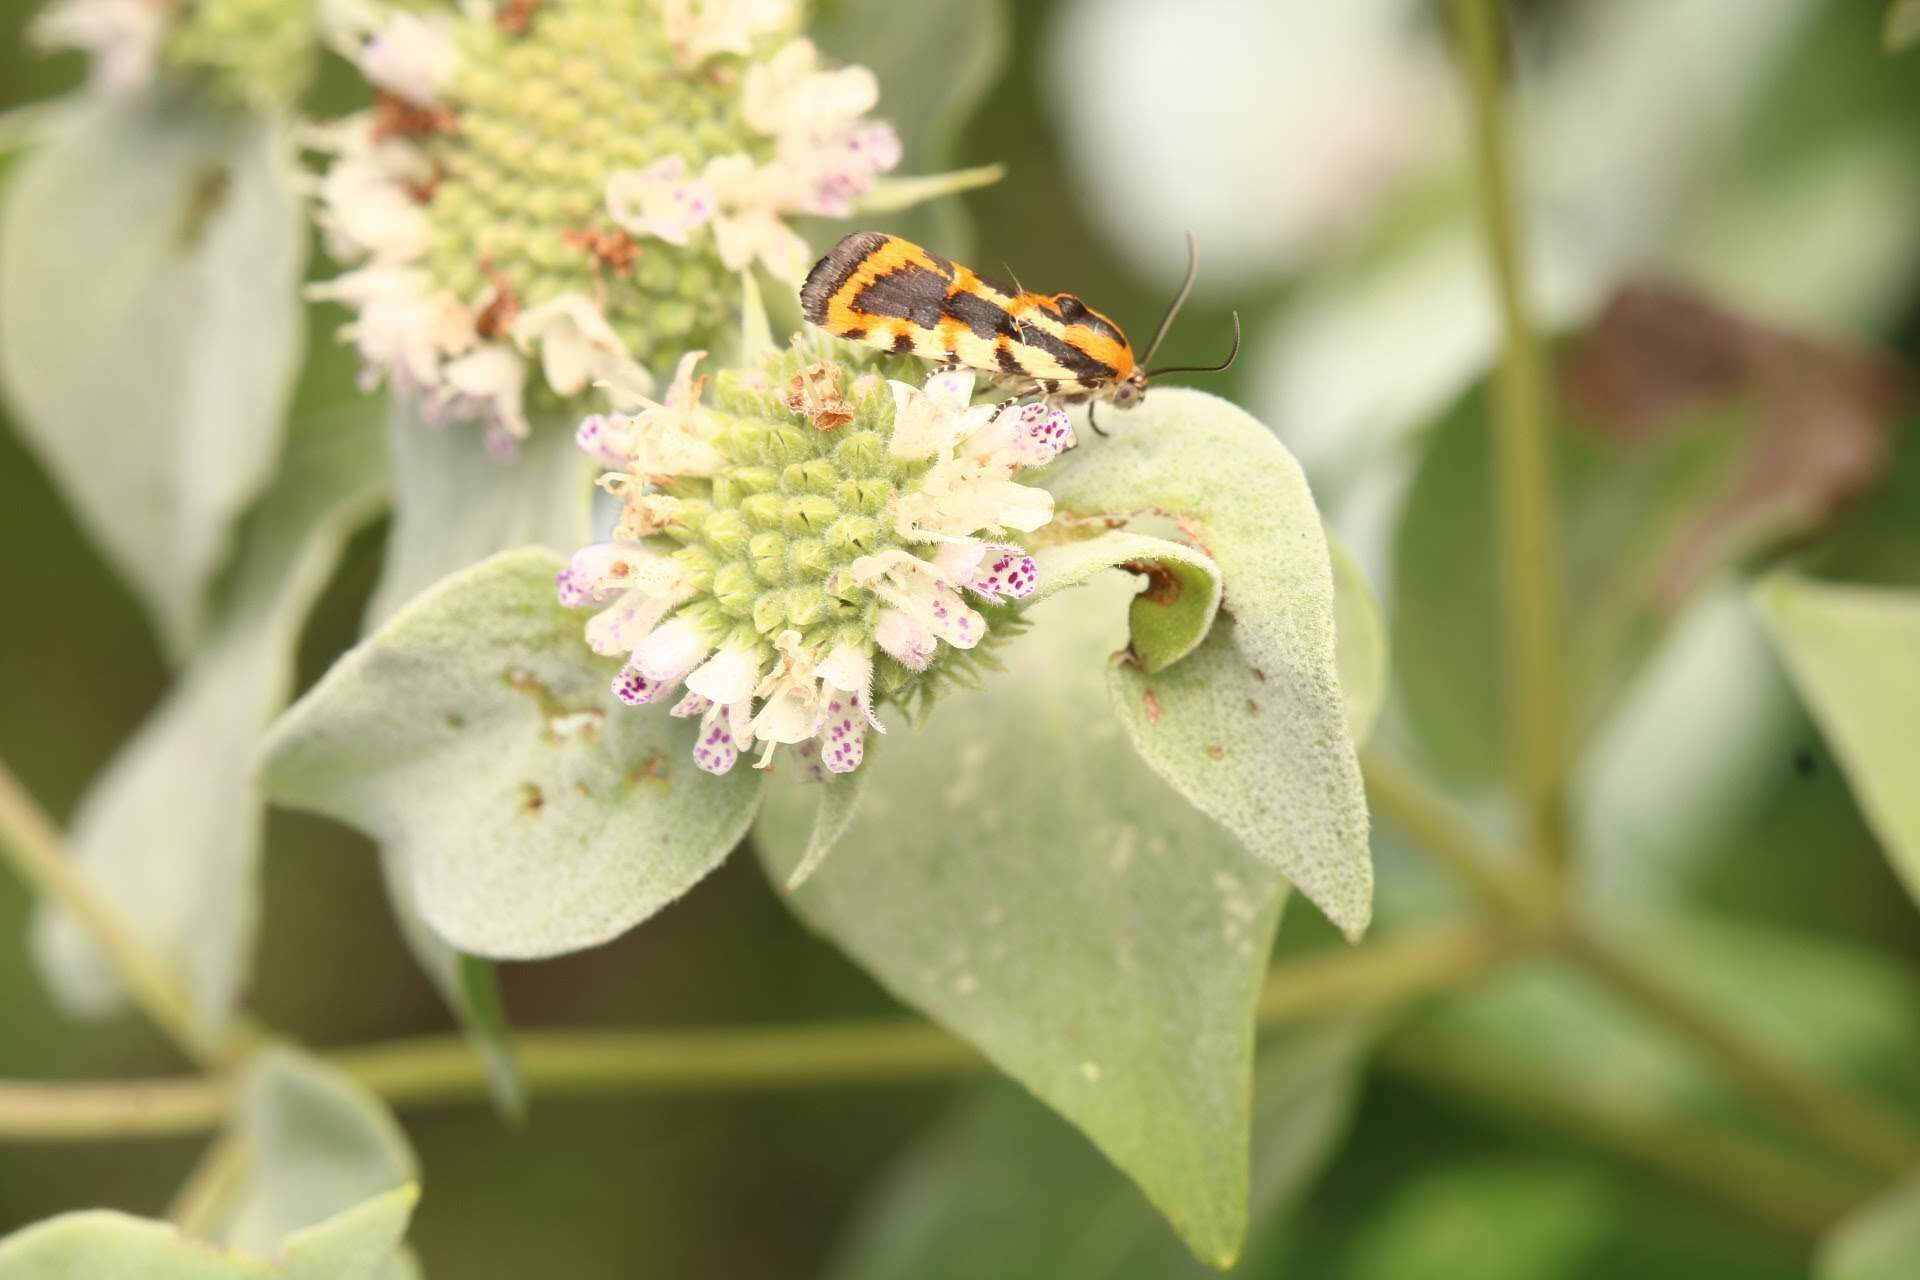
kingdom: Animalia
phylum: Arthropoda
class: Insecta
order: Lepidoptera
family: Noctuidae
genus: Acontia
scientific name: Acontia leo
